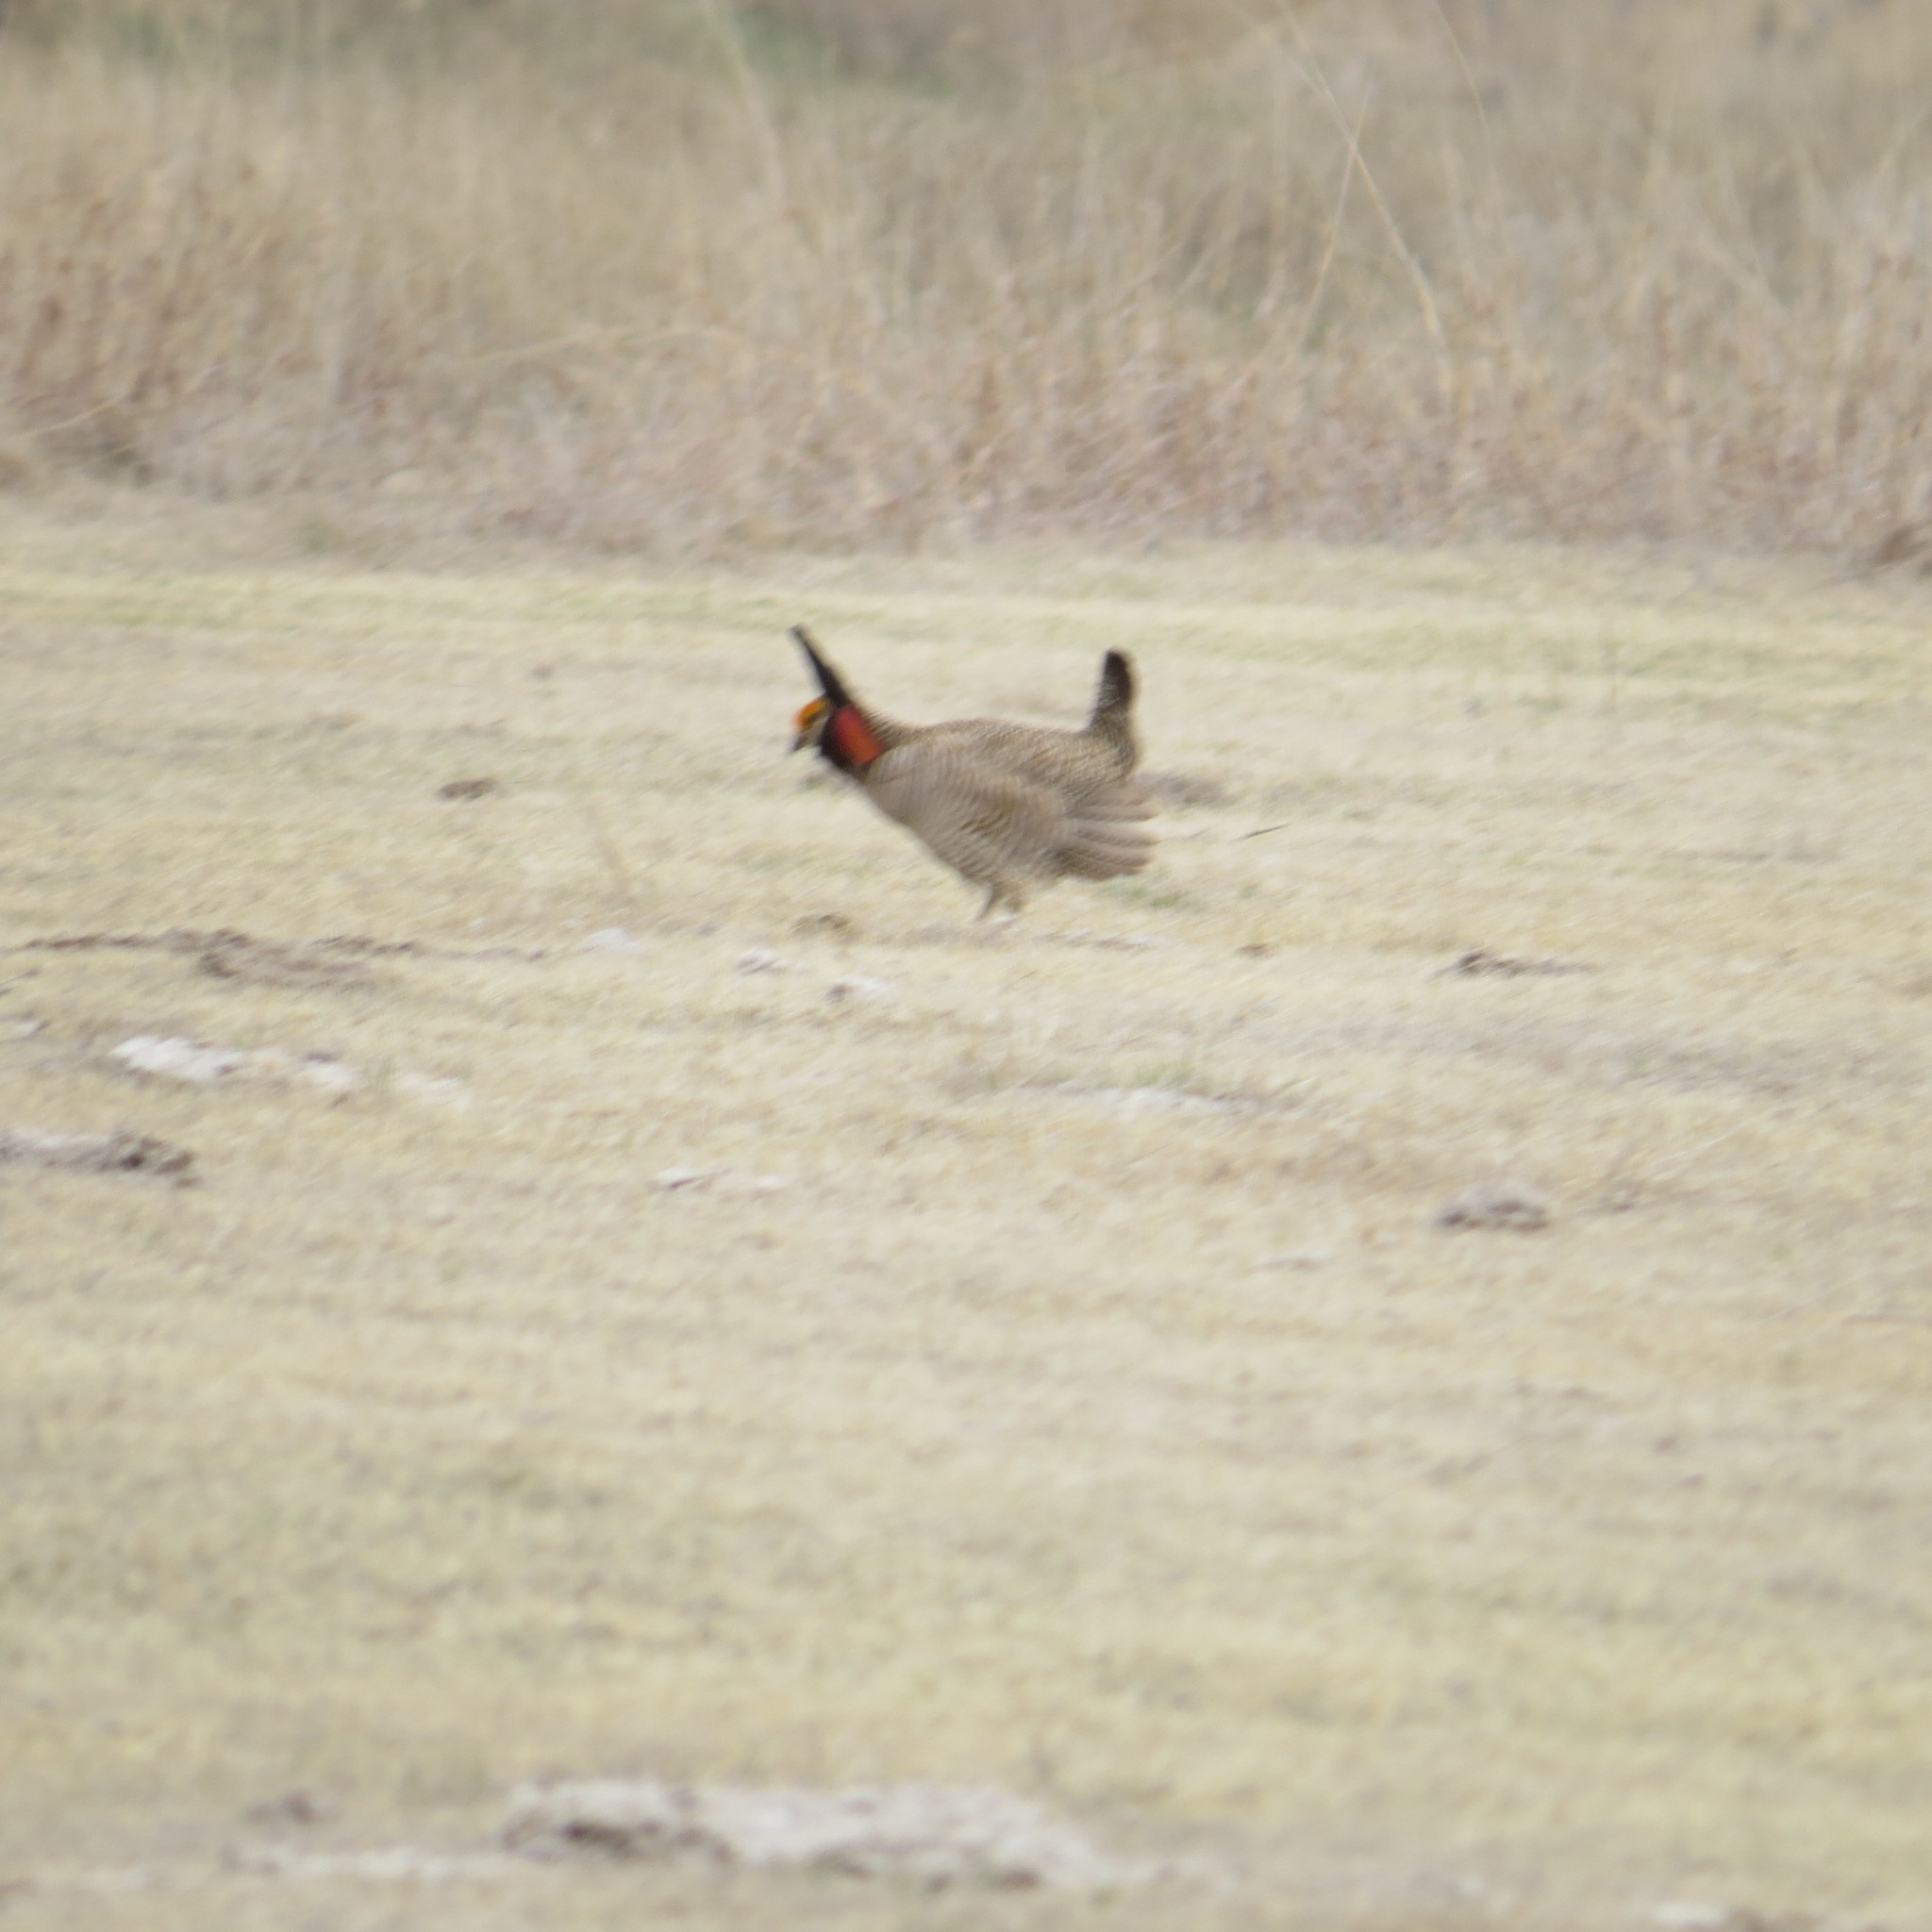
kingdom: Animalia
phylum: Chordata
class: Aves
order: Galliformes
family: Phasianidae
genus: Tympanuchus
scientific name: Tympanuchus pallidicinctus
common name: Lesser prairie chicken
